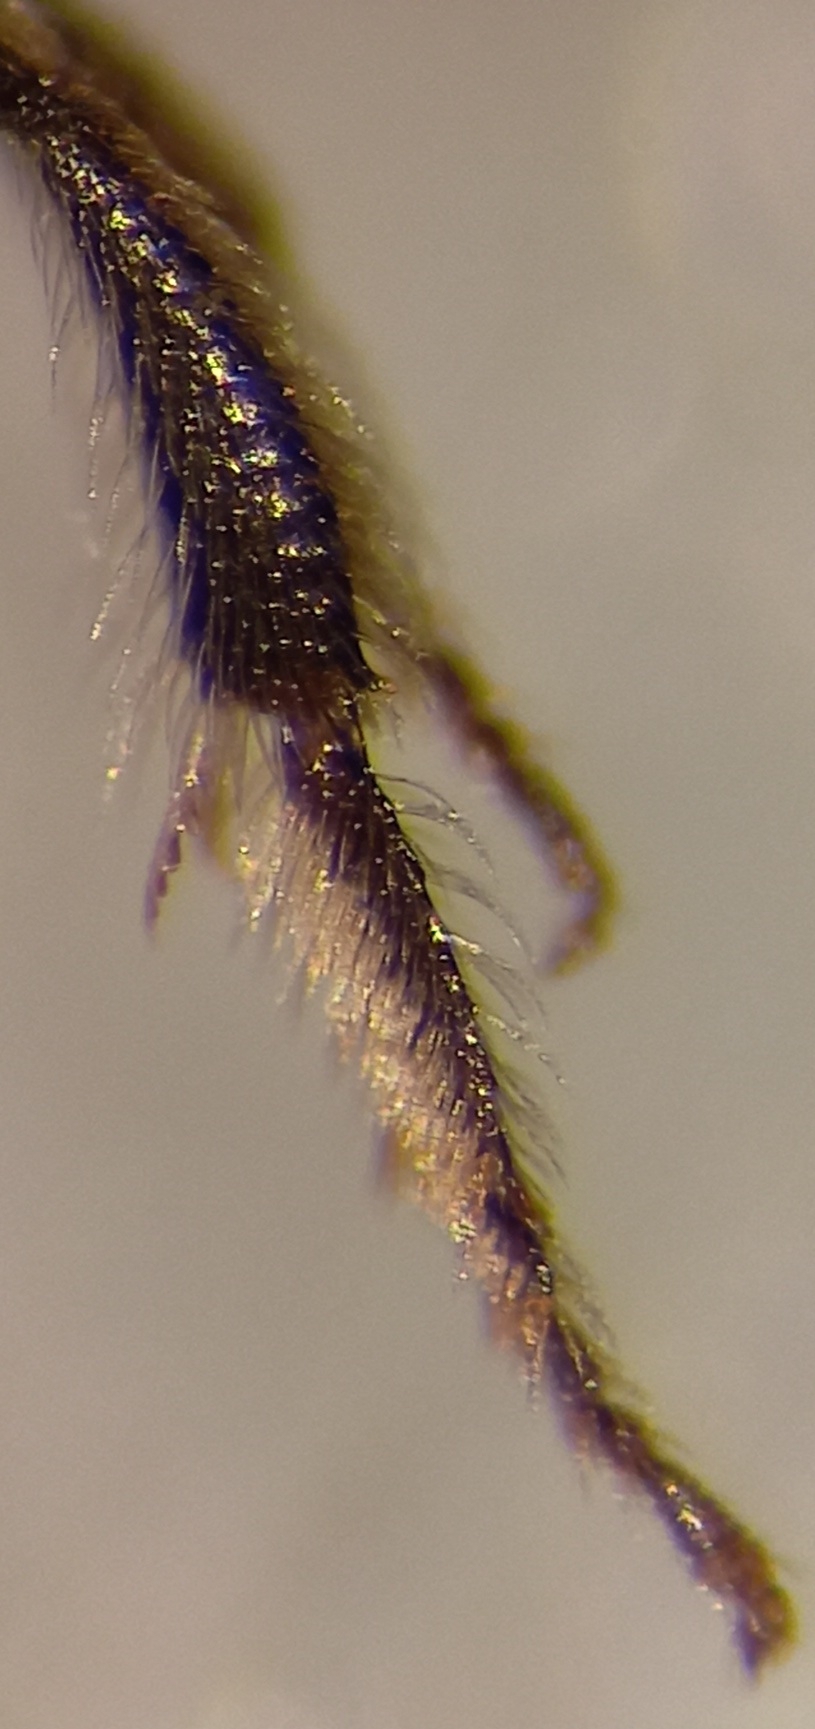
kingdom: Animalia
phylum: Arthropoda
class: Insecta
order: Hymenoptera
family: Halictidae
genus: Lasioglossum
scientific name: Lasioglossum griseolum
